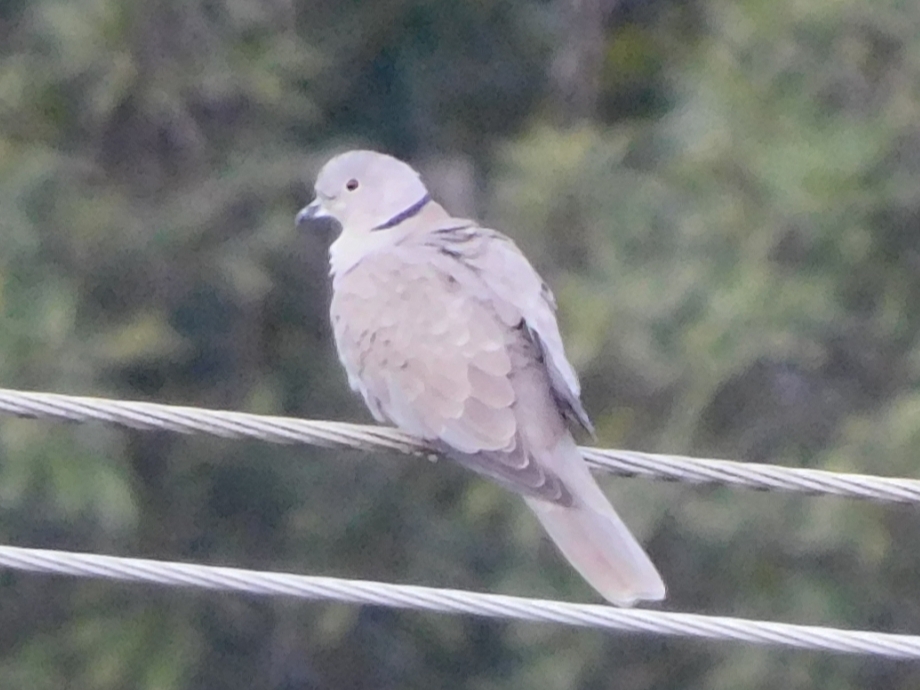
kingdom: Animalia
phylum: Chordata
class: Aves
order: Columbiformes
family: Columbidae
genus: Streptopelia
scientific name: Streptopelia decaocto
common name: Eurasian collared dove
